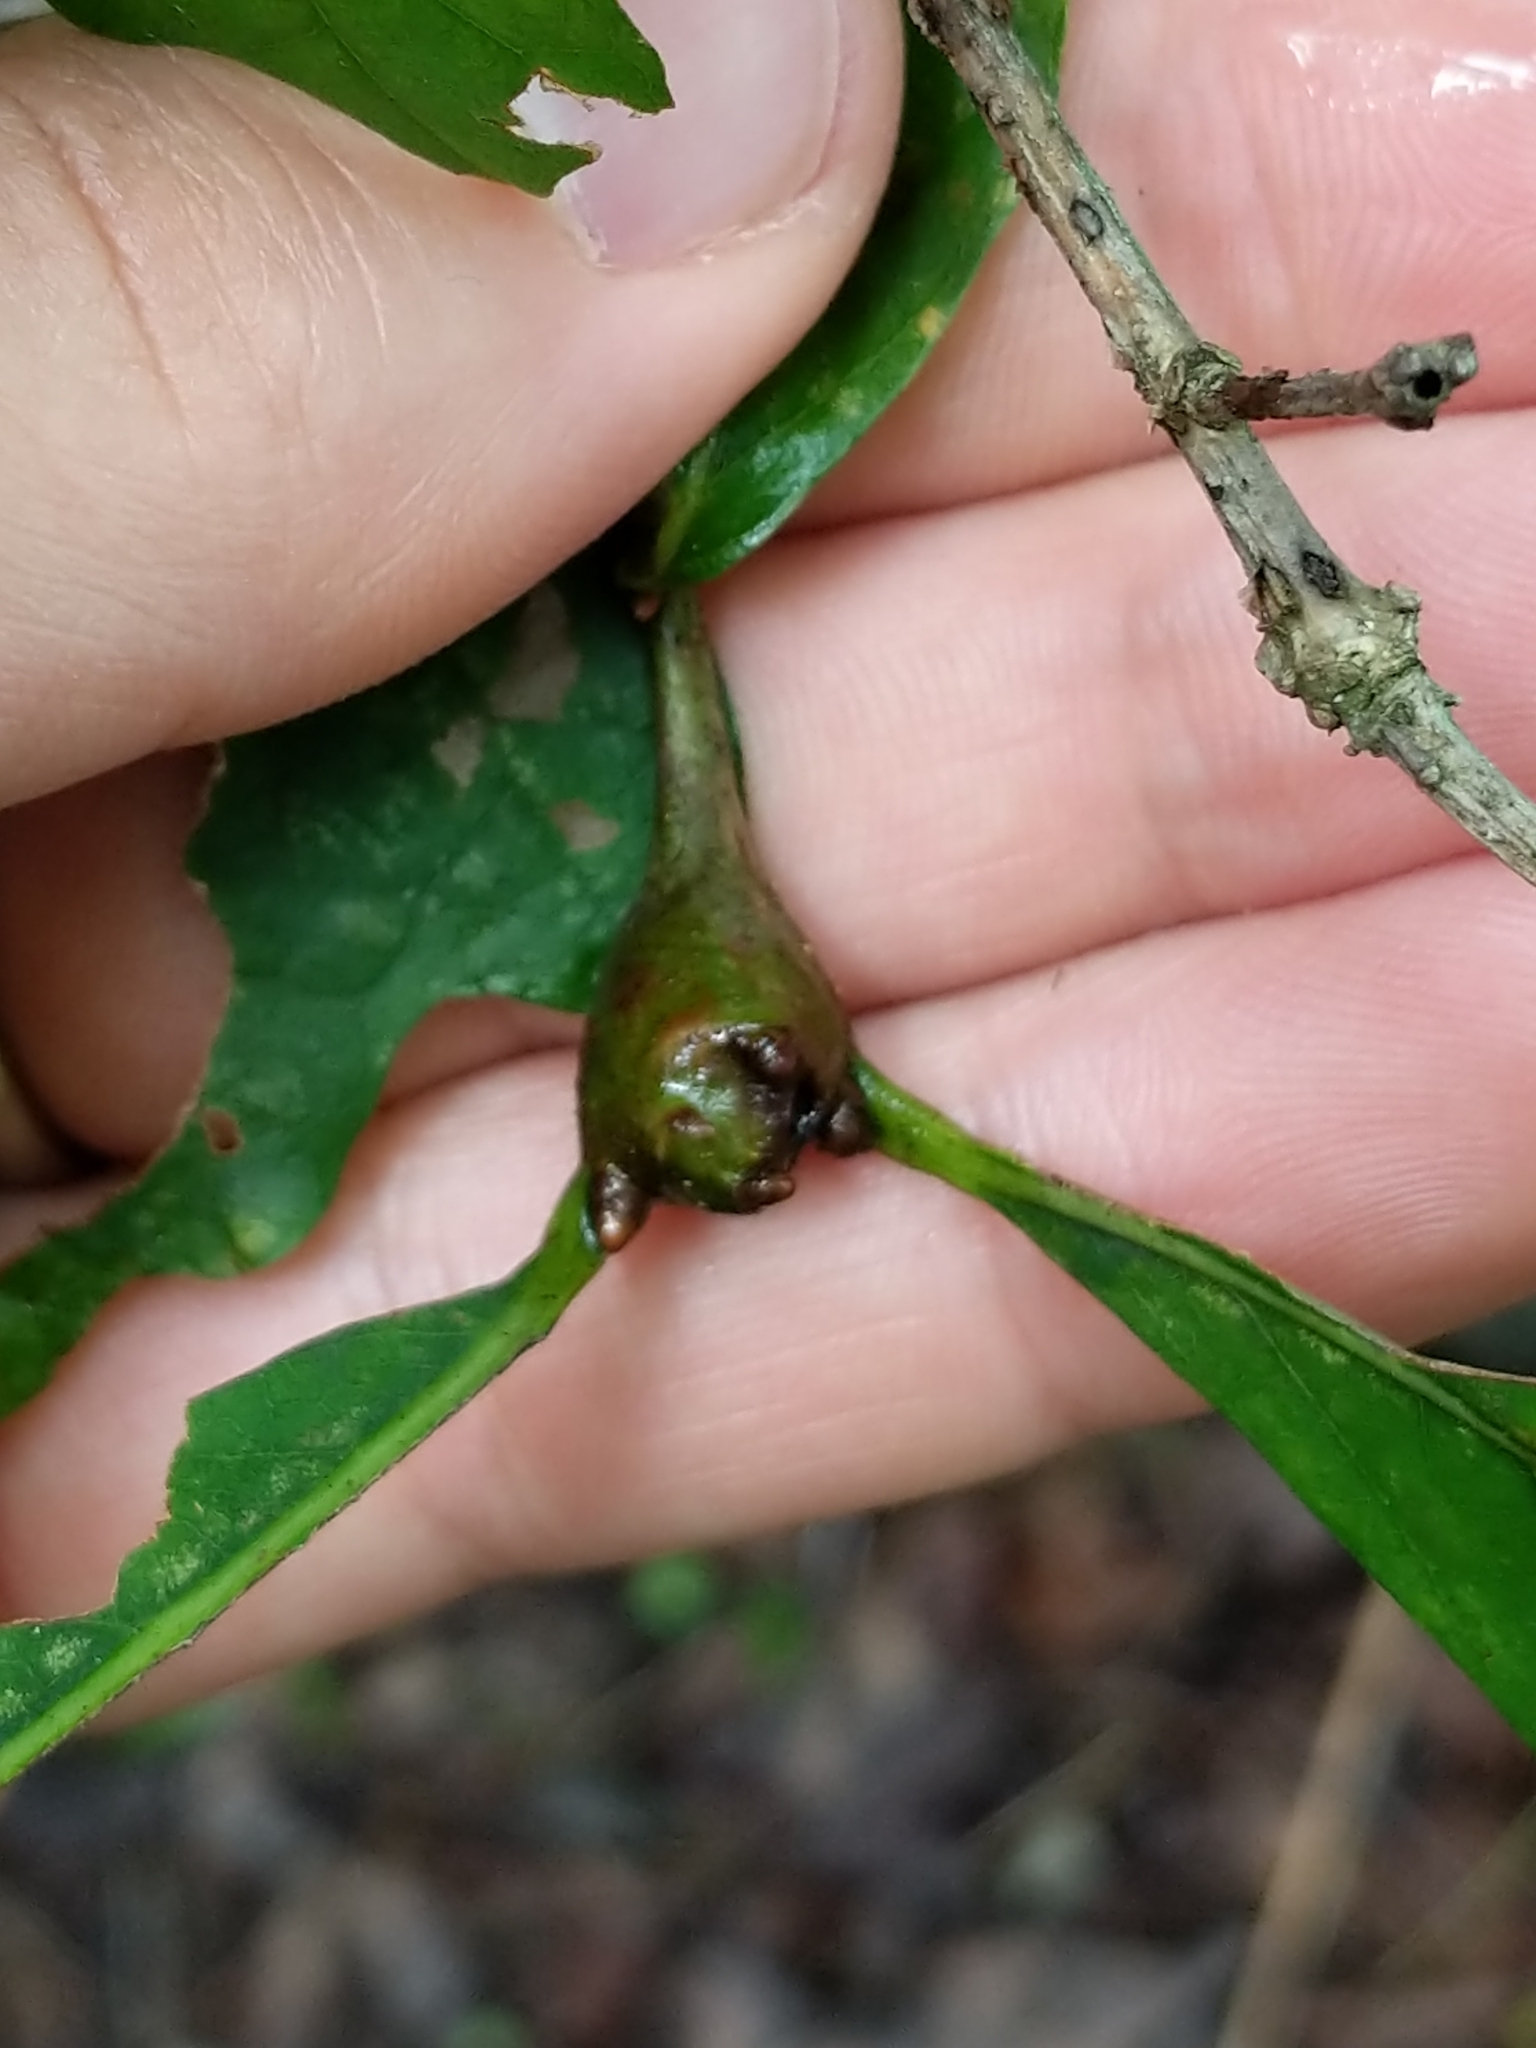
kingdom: Animalia
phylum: Arthropoda
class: Insecta
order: Hymenoptera
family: Cynipidae
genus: Callirhytis
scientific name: Callirhytis clavula
